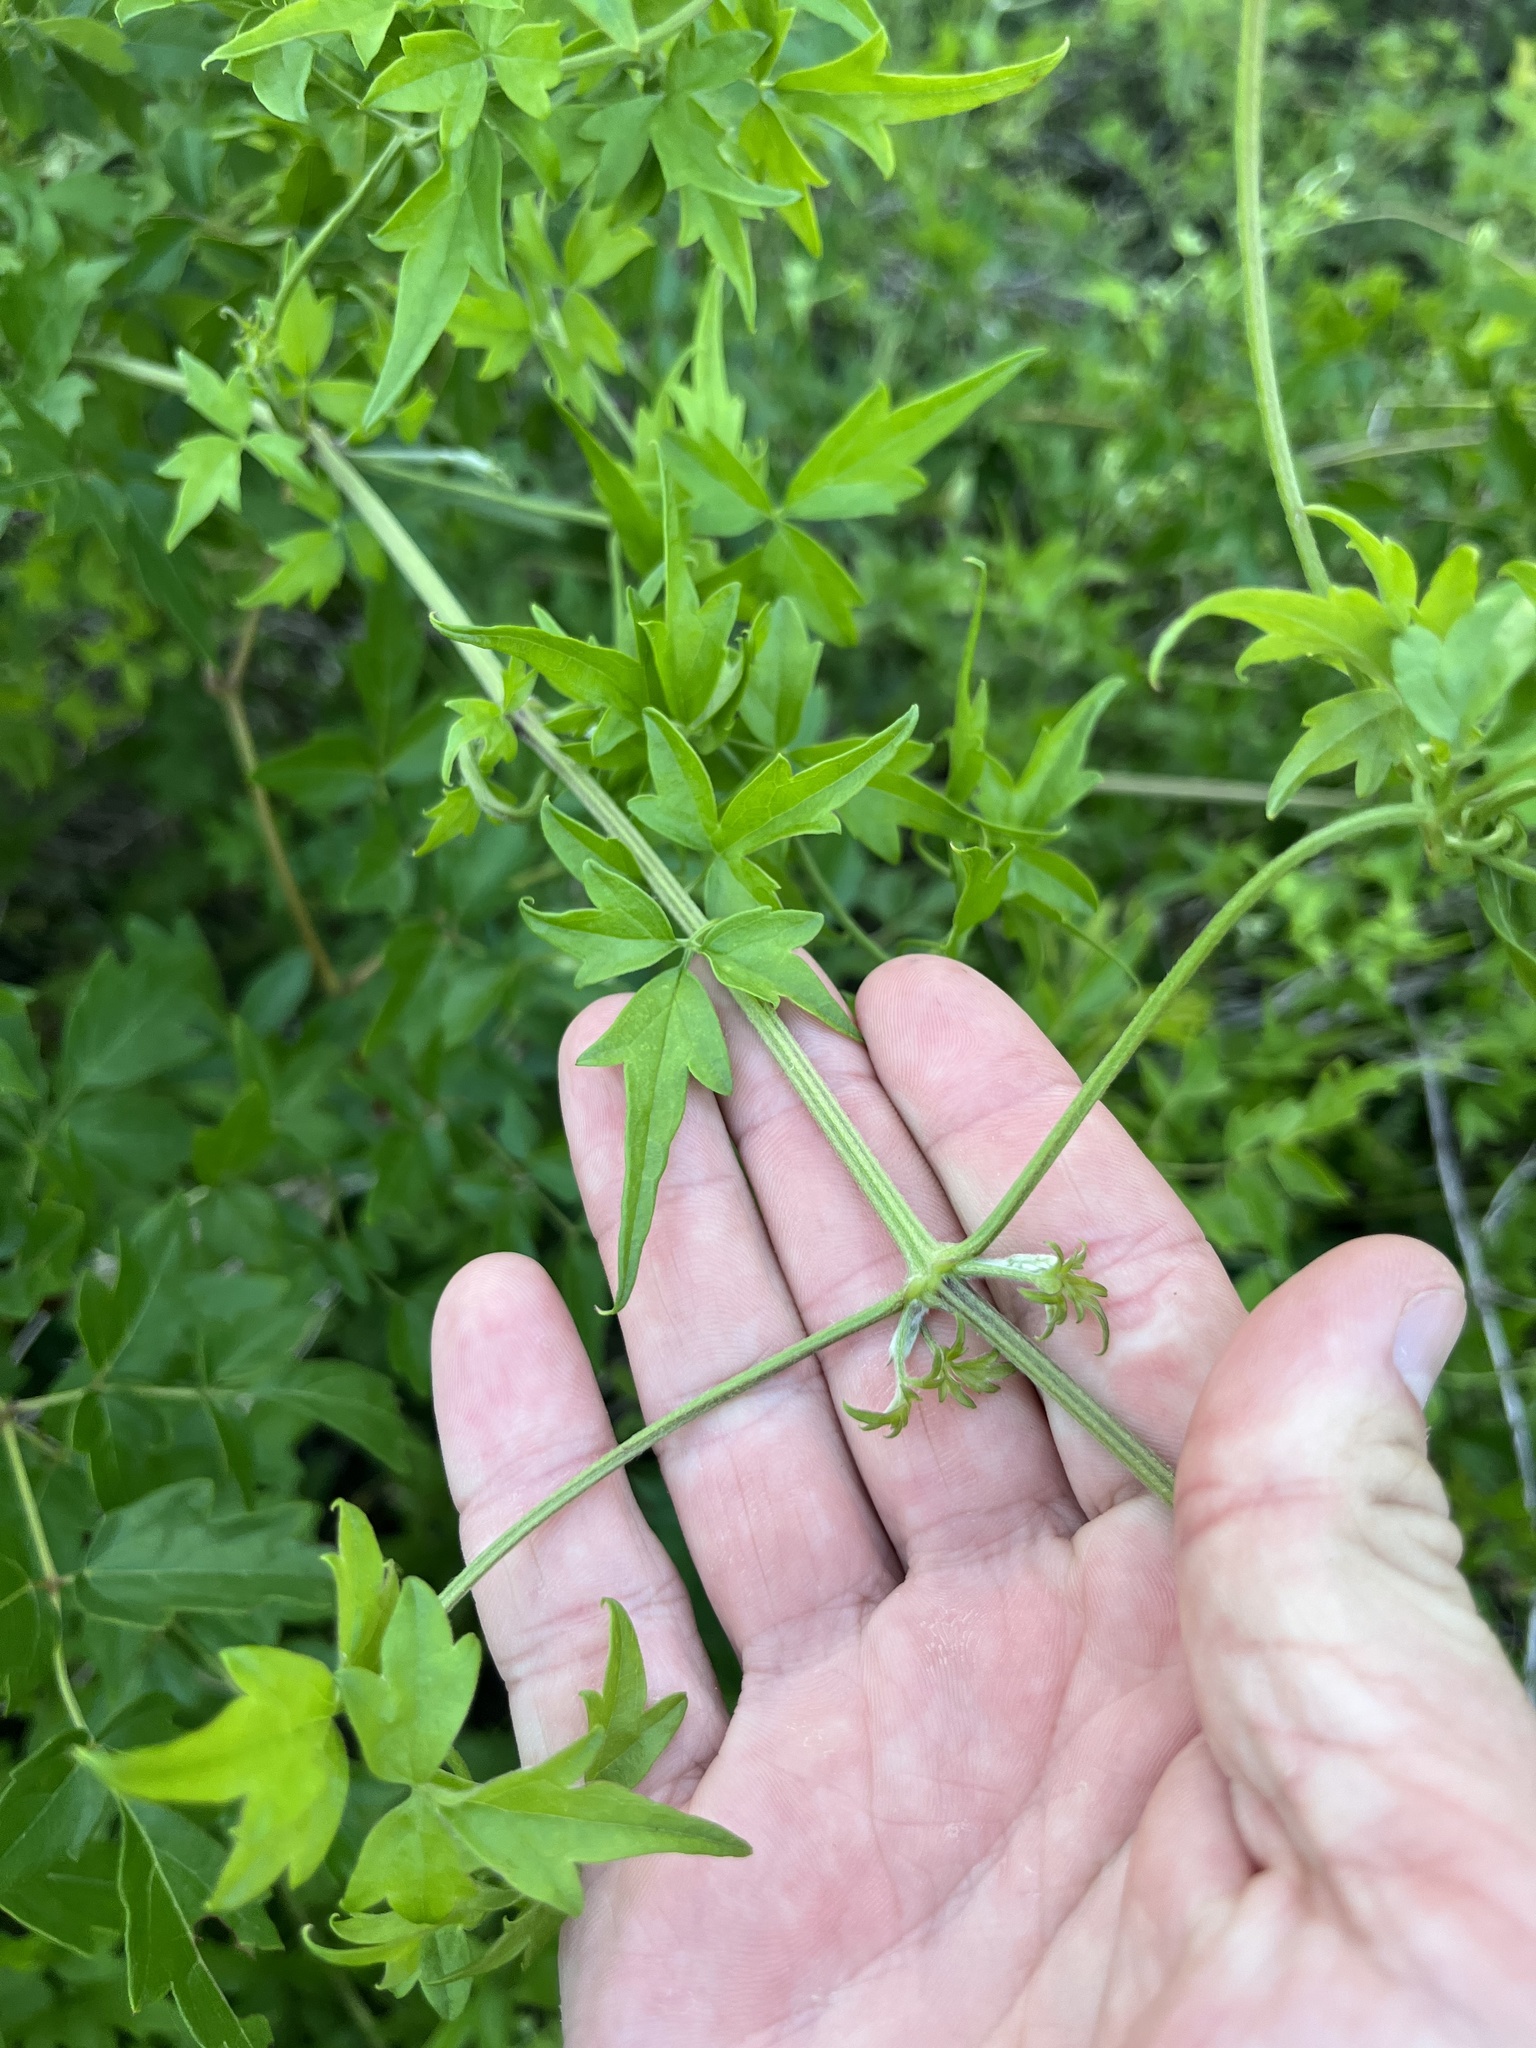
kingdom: Plantae
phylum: Tracheophyta
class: Magnoliopsida
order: Ranunculales
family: Ranunculaceae
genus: Clematis
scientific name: Clematis drummondii
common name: Texas virgin's bower
